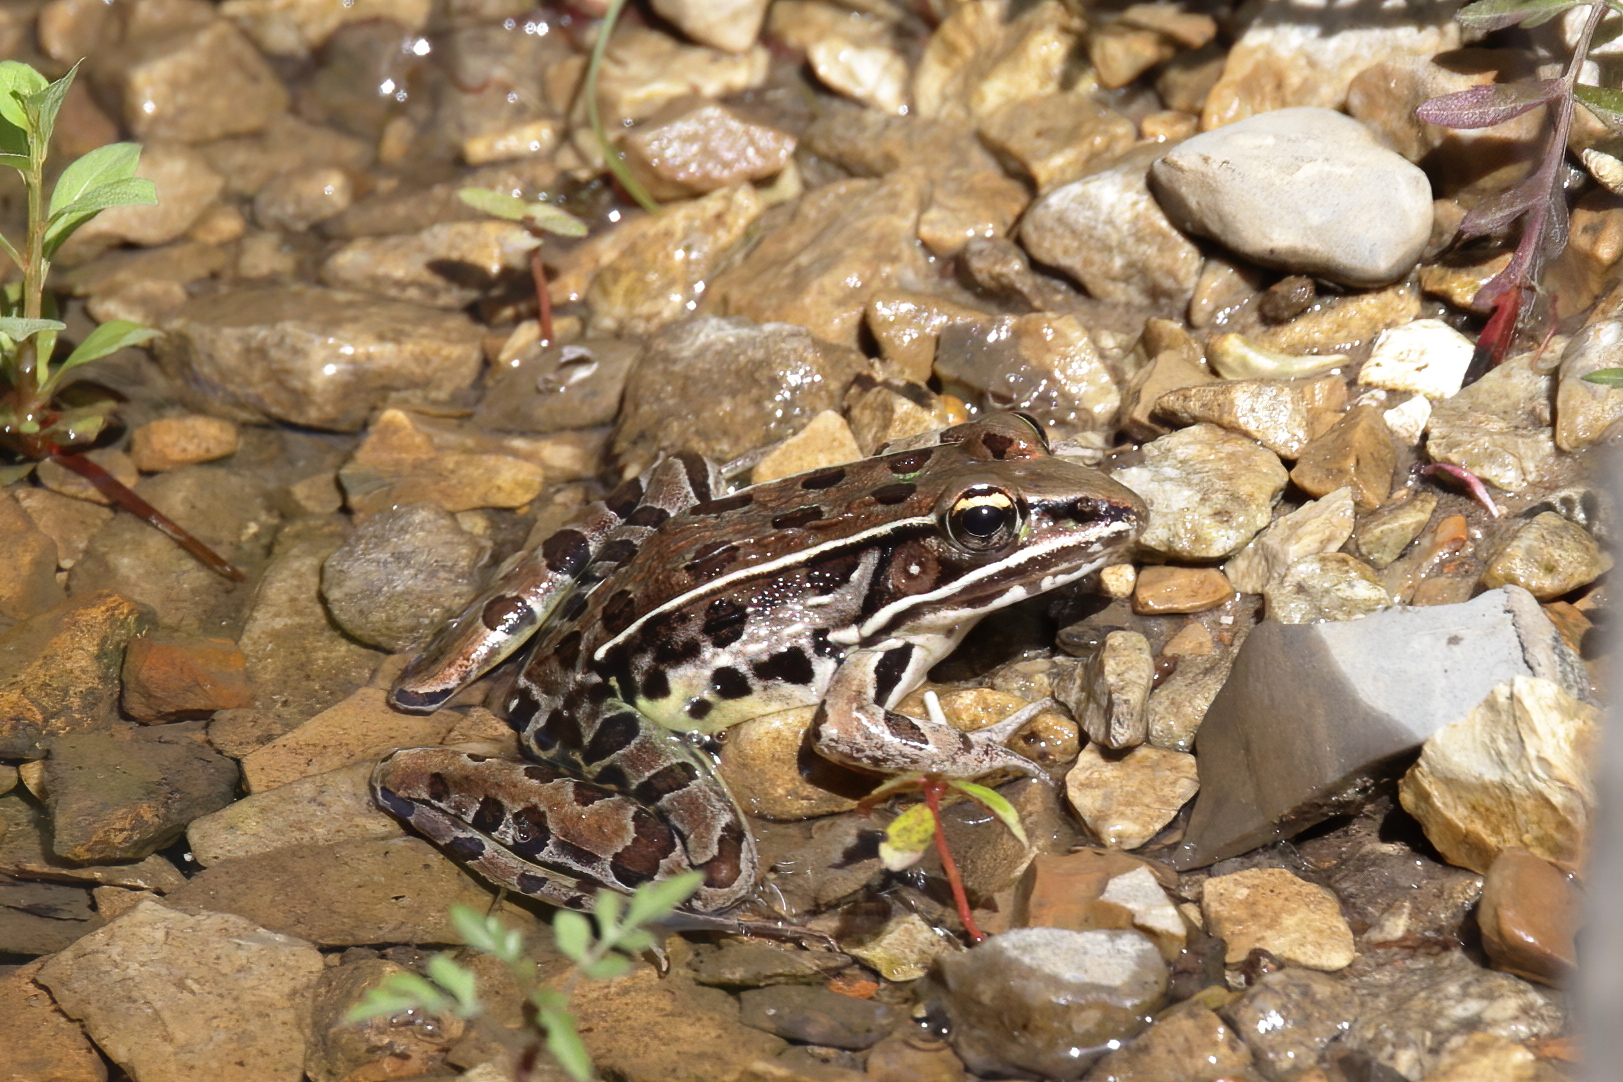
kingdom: Animalia
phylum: Chordata
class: Amphibia
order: Anura
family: Ranidae
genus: Lithobates
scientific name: Lithobates sphenocephalus
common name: Southern leopard frog
